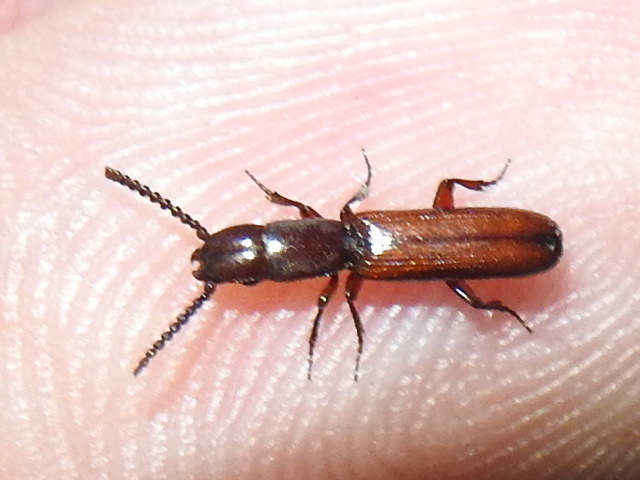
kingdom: Animalia
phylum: Arthropoda
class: Insecta
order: Coleoptera
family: Passandridae
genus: Taphroscelidia
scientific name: Taphroscelidia linearis
